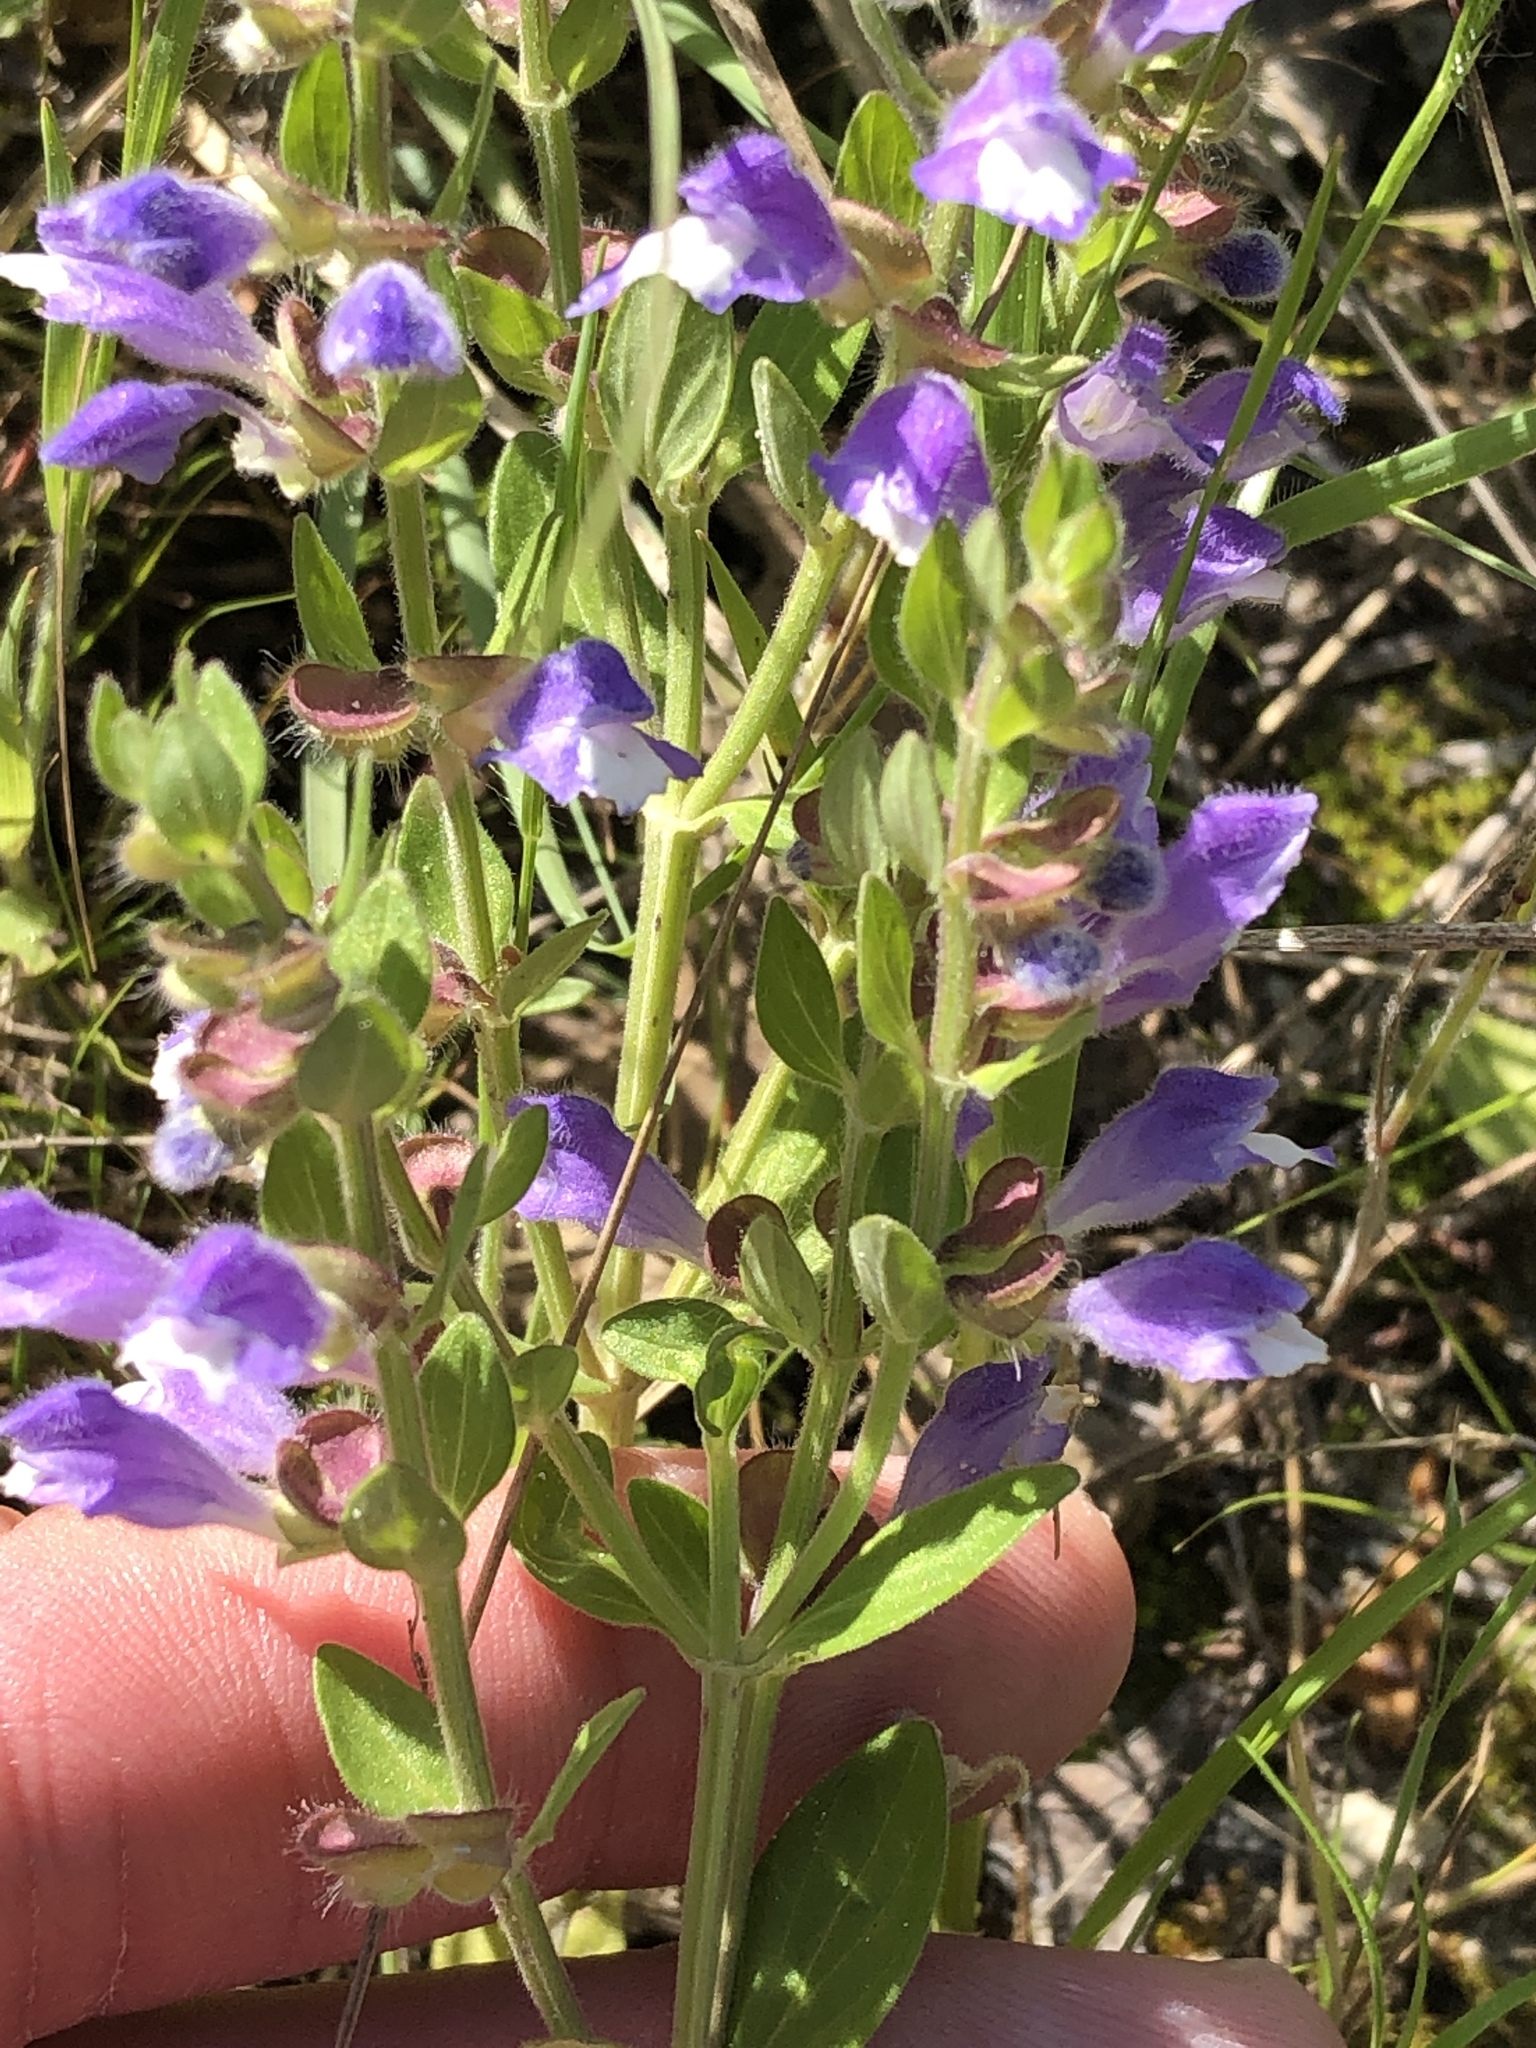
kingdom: Plantae
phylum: Tracheophyta
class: Magnoliopsida
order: Lamiales
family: Lamiaceae
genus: Scutellaria
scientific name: Scutellaria drummondii
